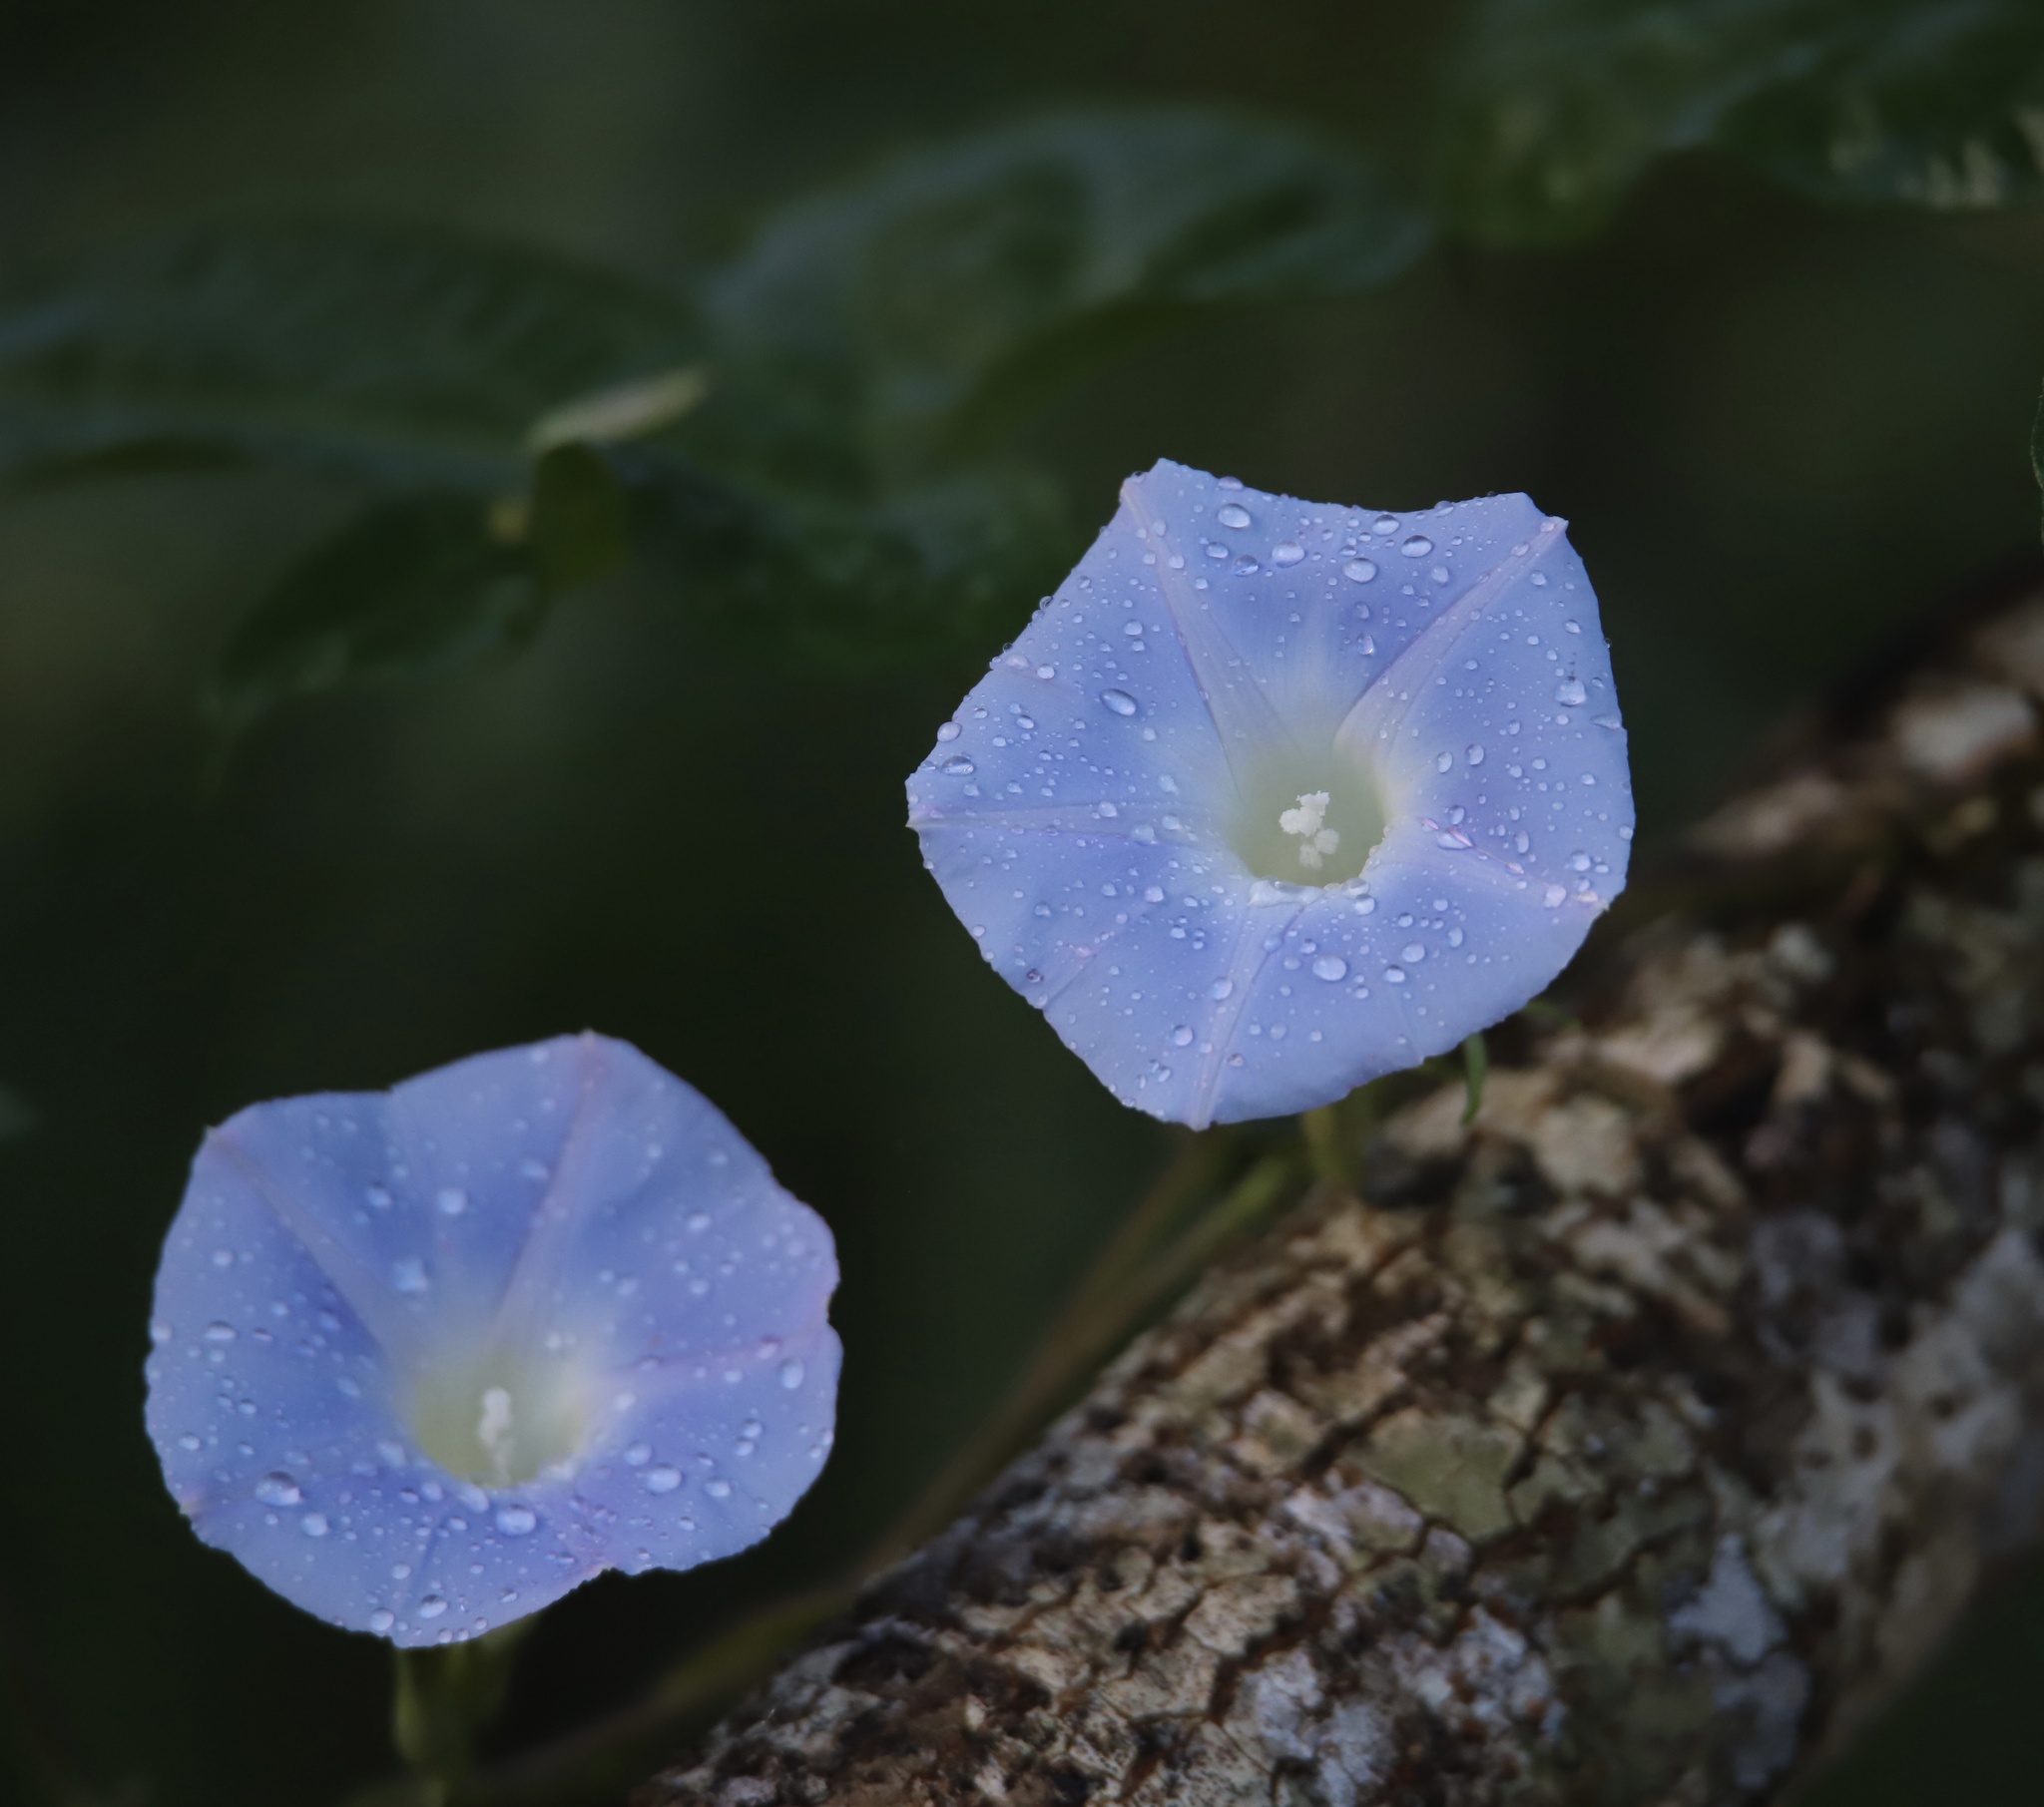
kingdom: Plantae
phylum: Tracheophyta
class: Magnoliopsida
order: Solanales
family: Convolvulaceae
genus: Ipomoea
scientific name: Ipomoea nil
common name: Japanese morning-glory
